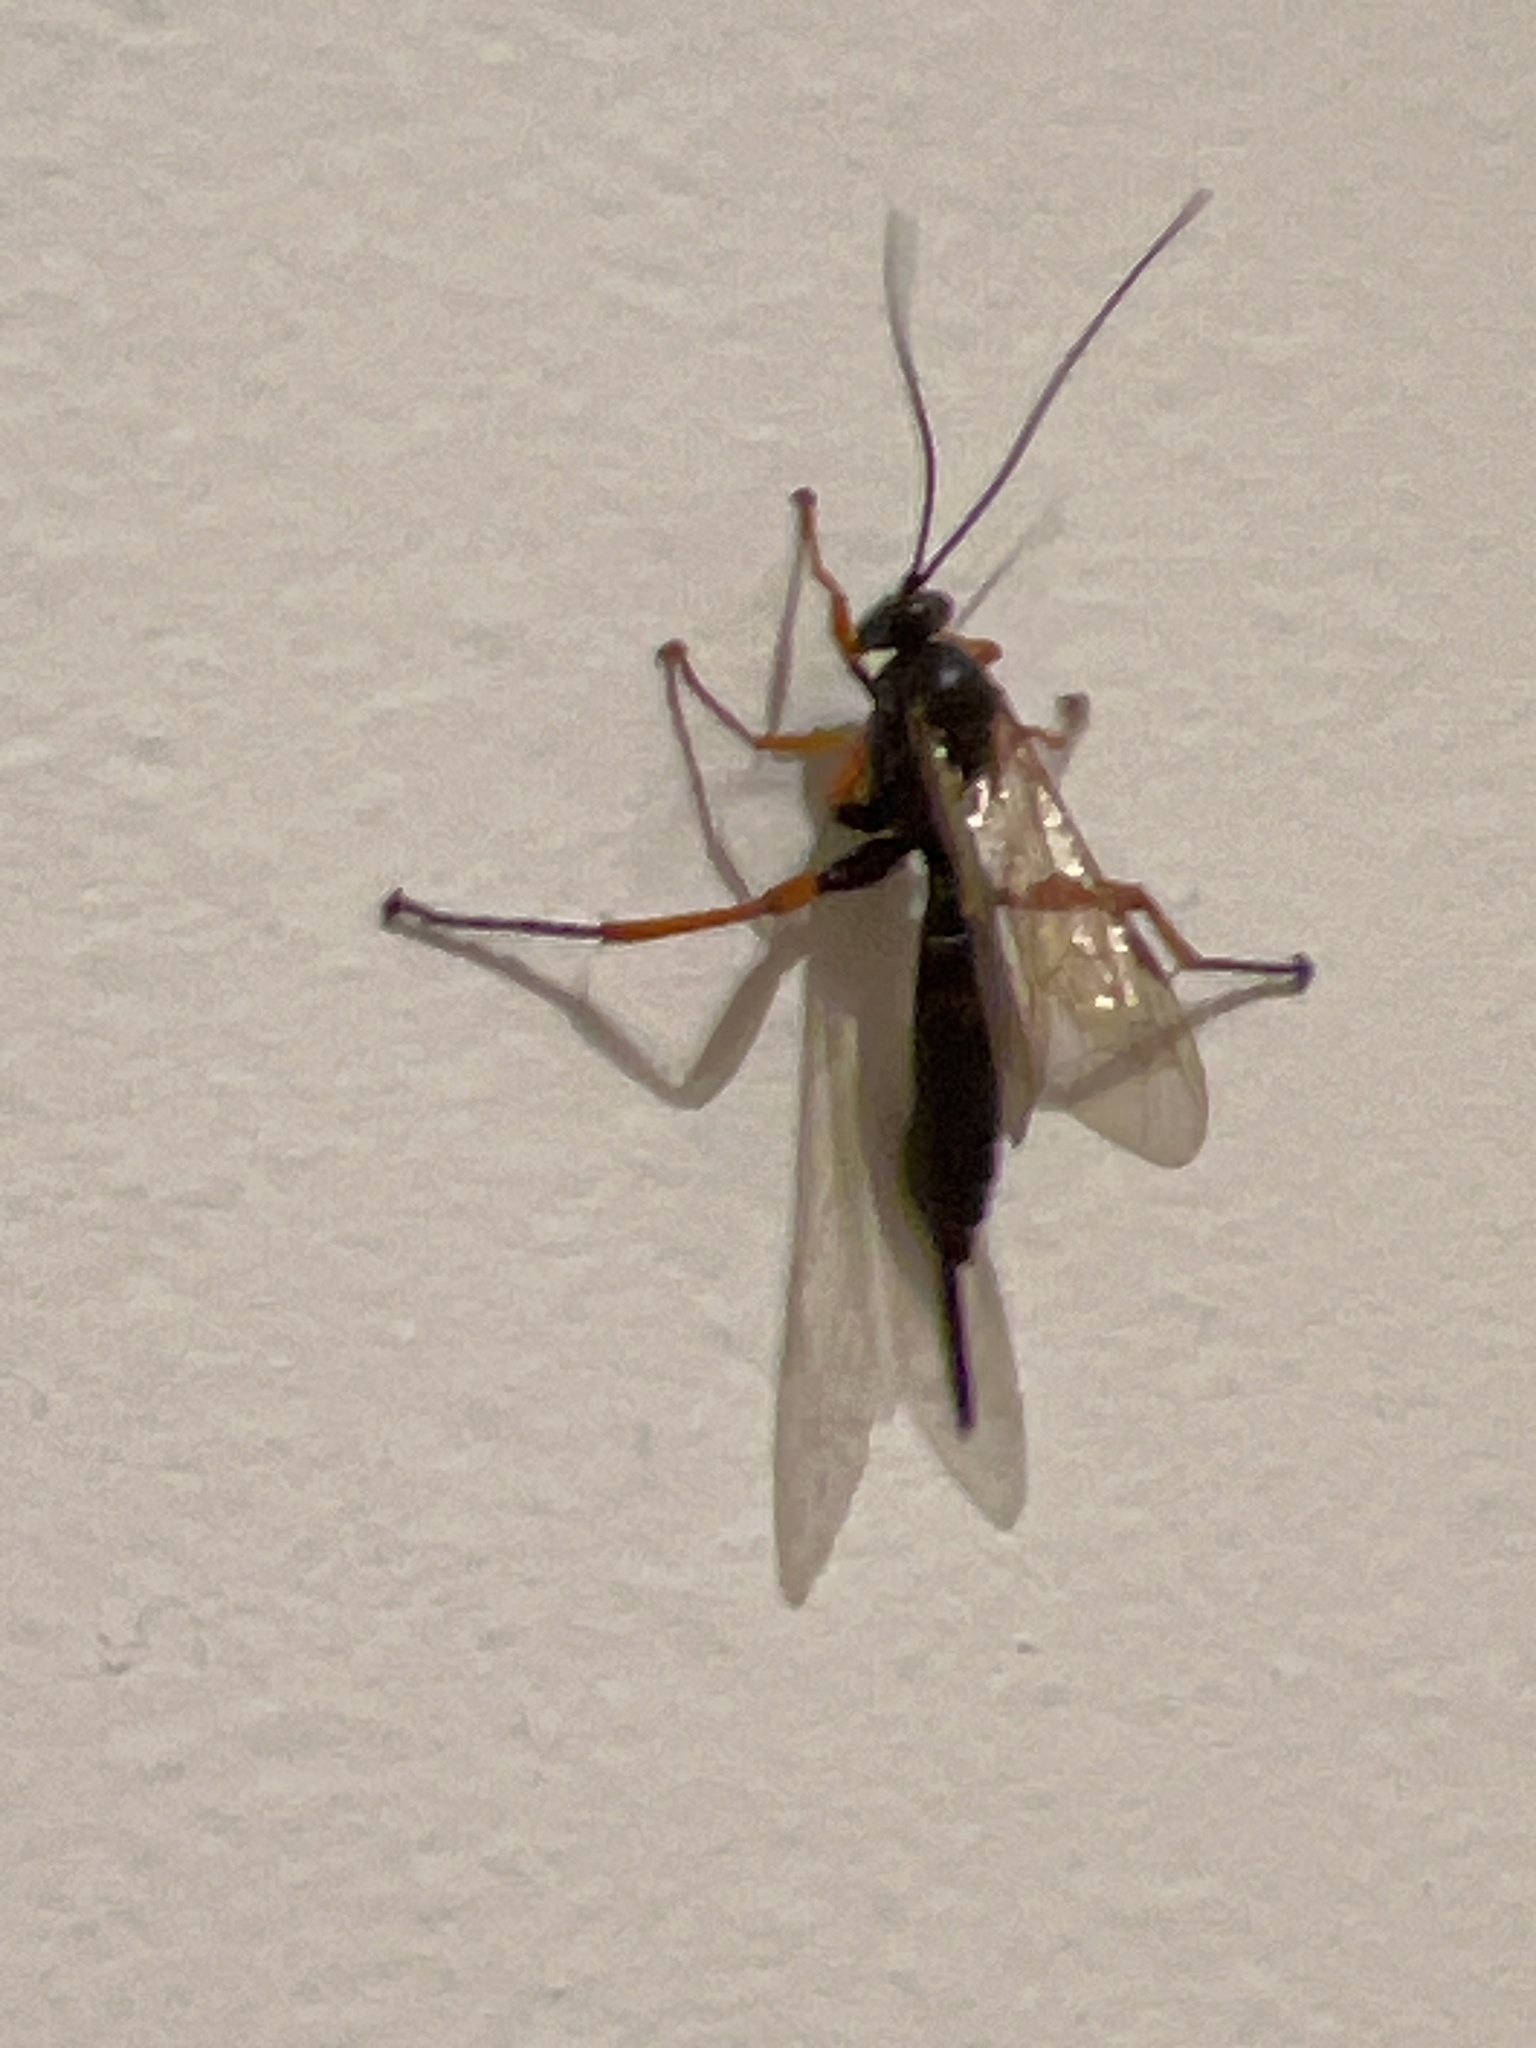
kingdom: Animalia
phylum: Arthropoda
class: Insecta
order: Hymenoptera
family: Ichneumonidae
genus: Pimpla
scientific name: Pimpla rufipes
